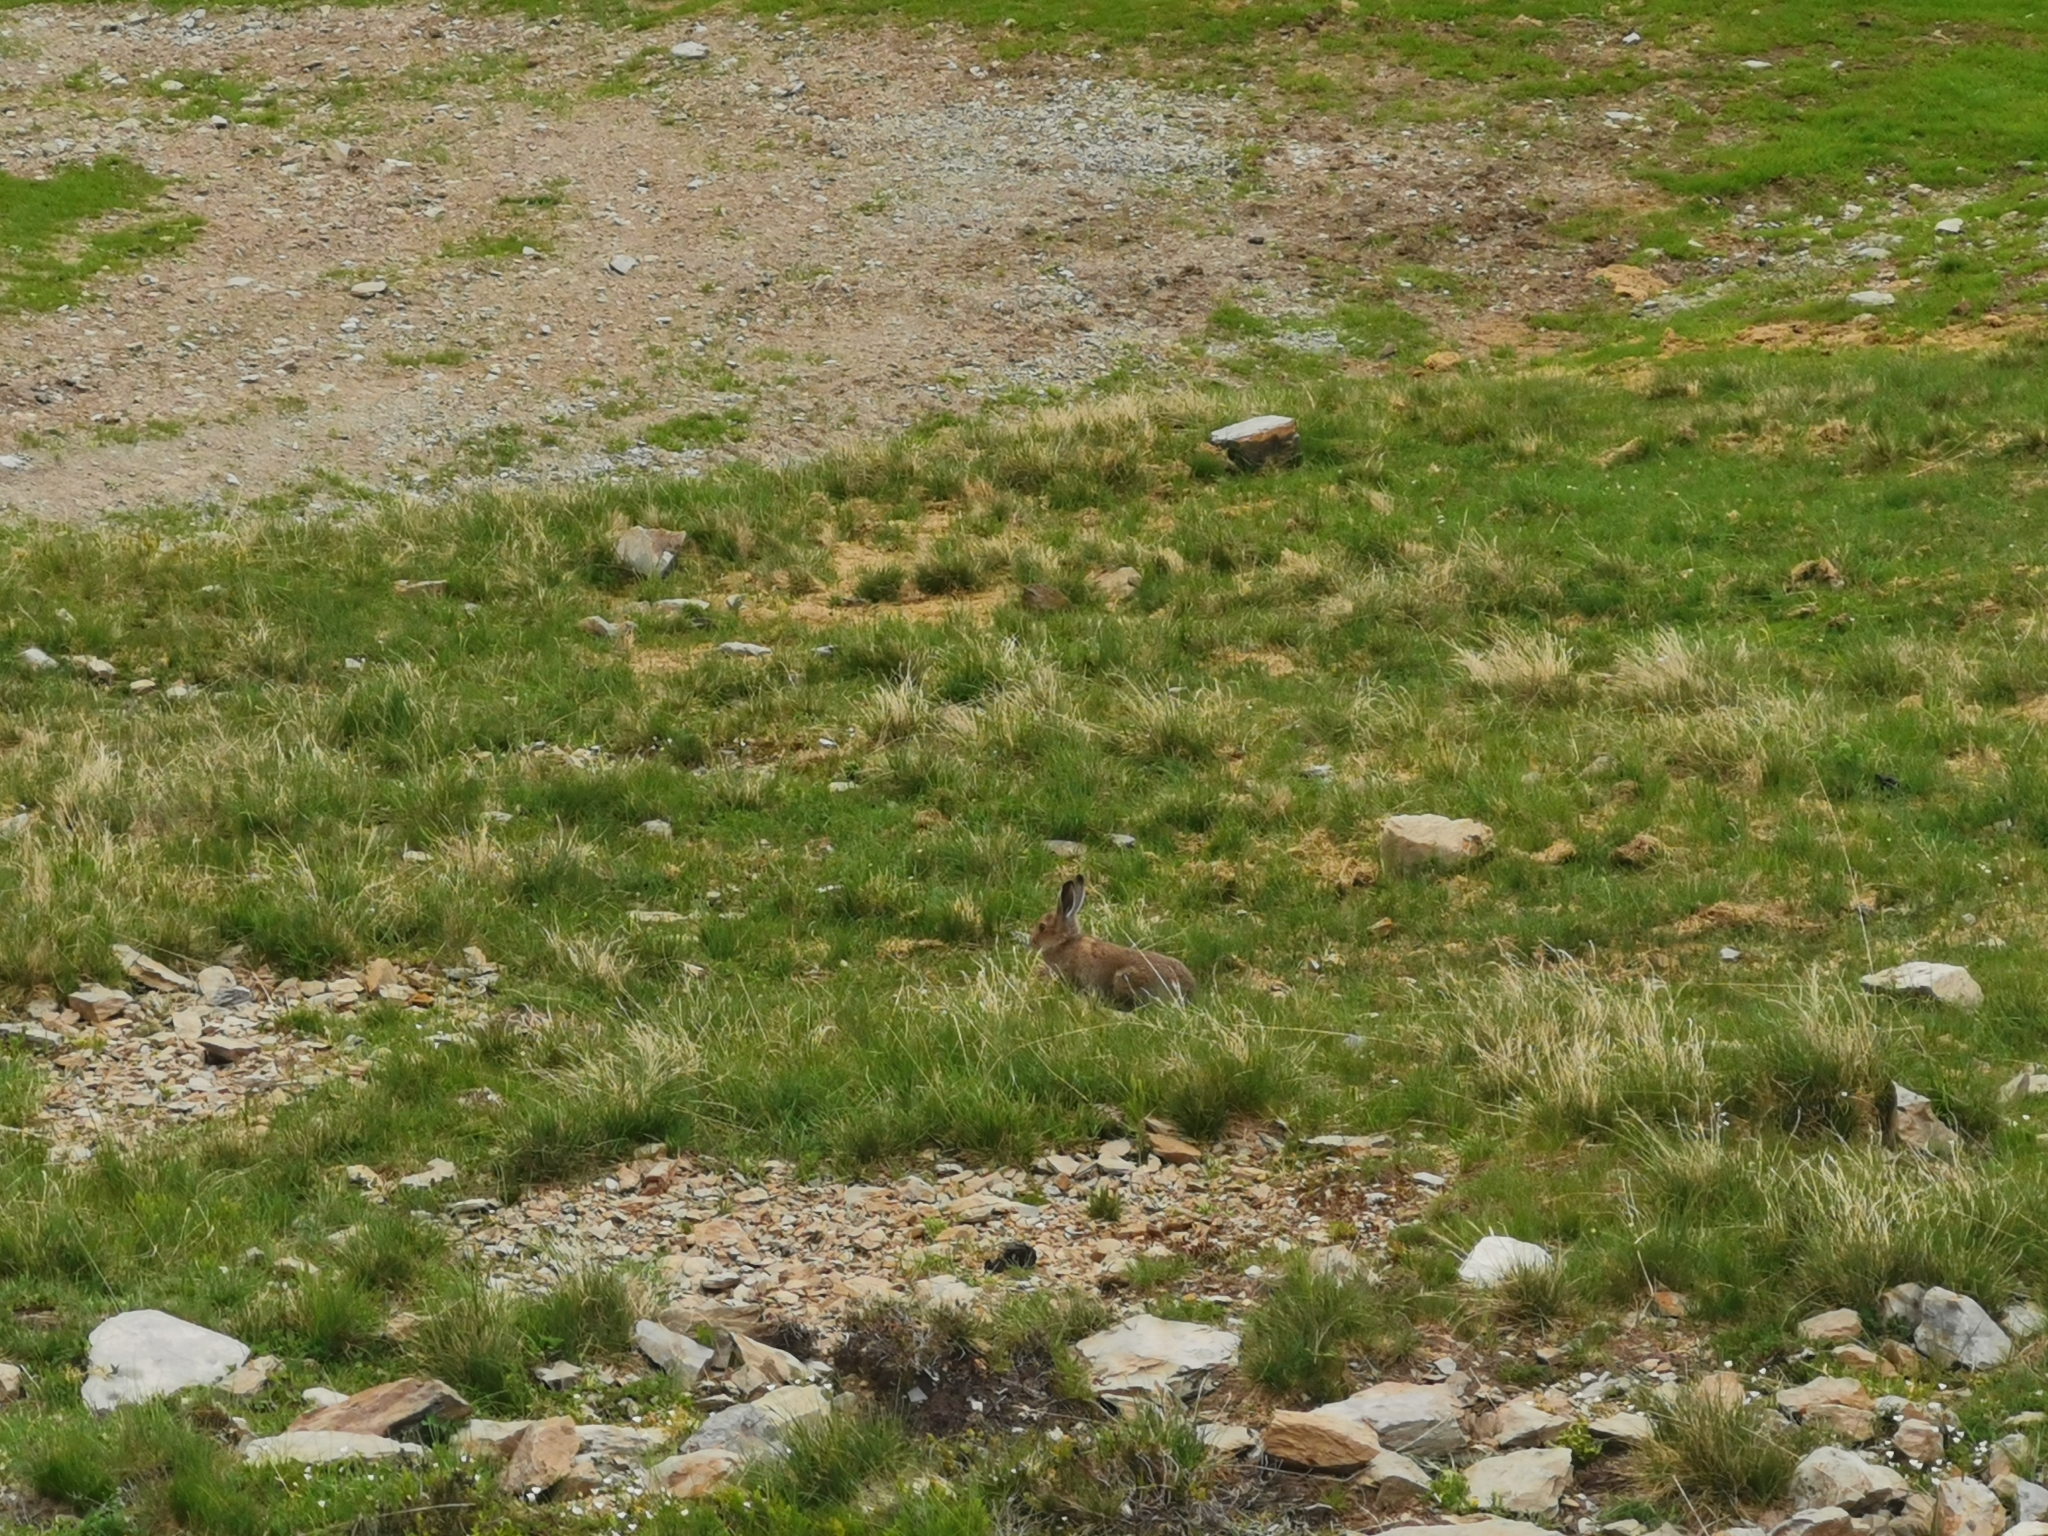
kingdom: Animalia
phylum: Chordata
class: Mammalia
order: Lagomorpha
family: Leporidae
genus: Lepus
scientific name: Lepus timidus
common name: Mountain hare
